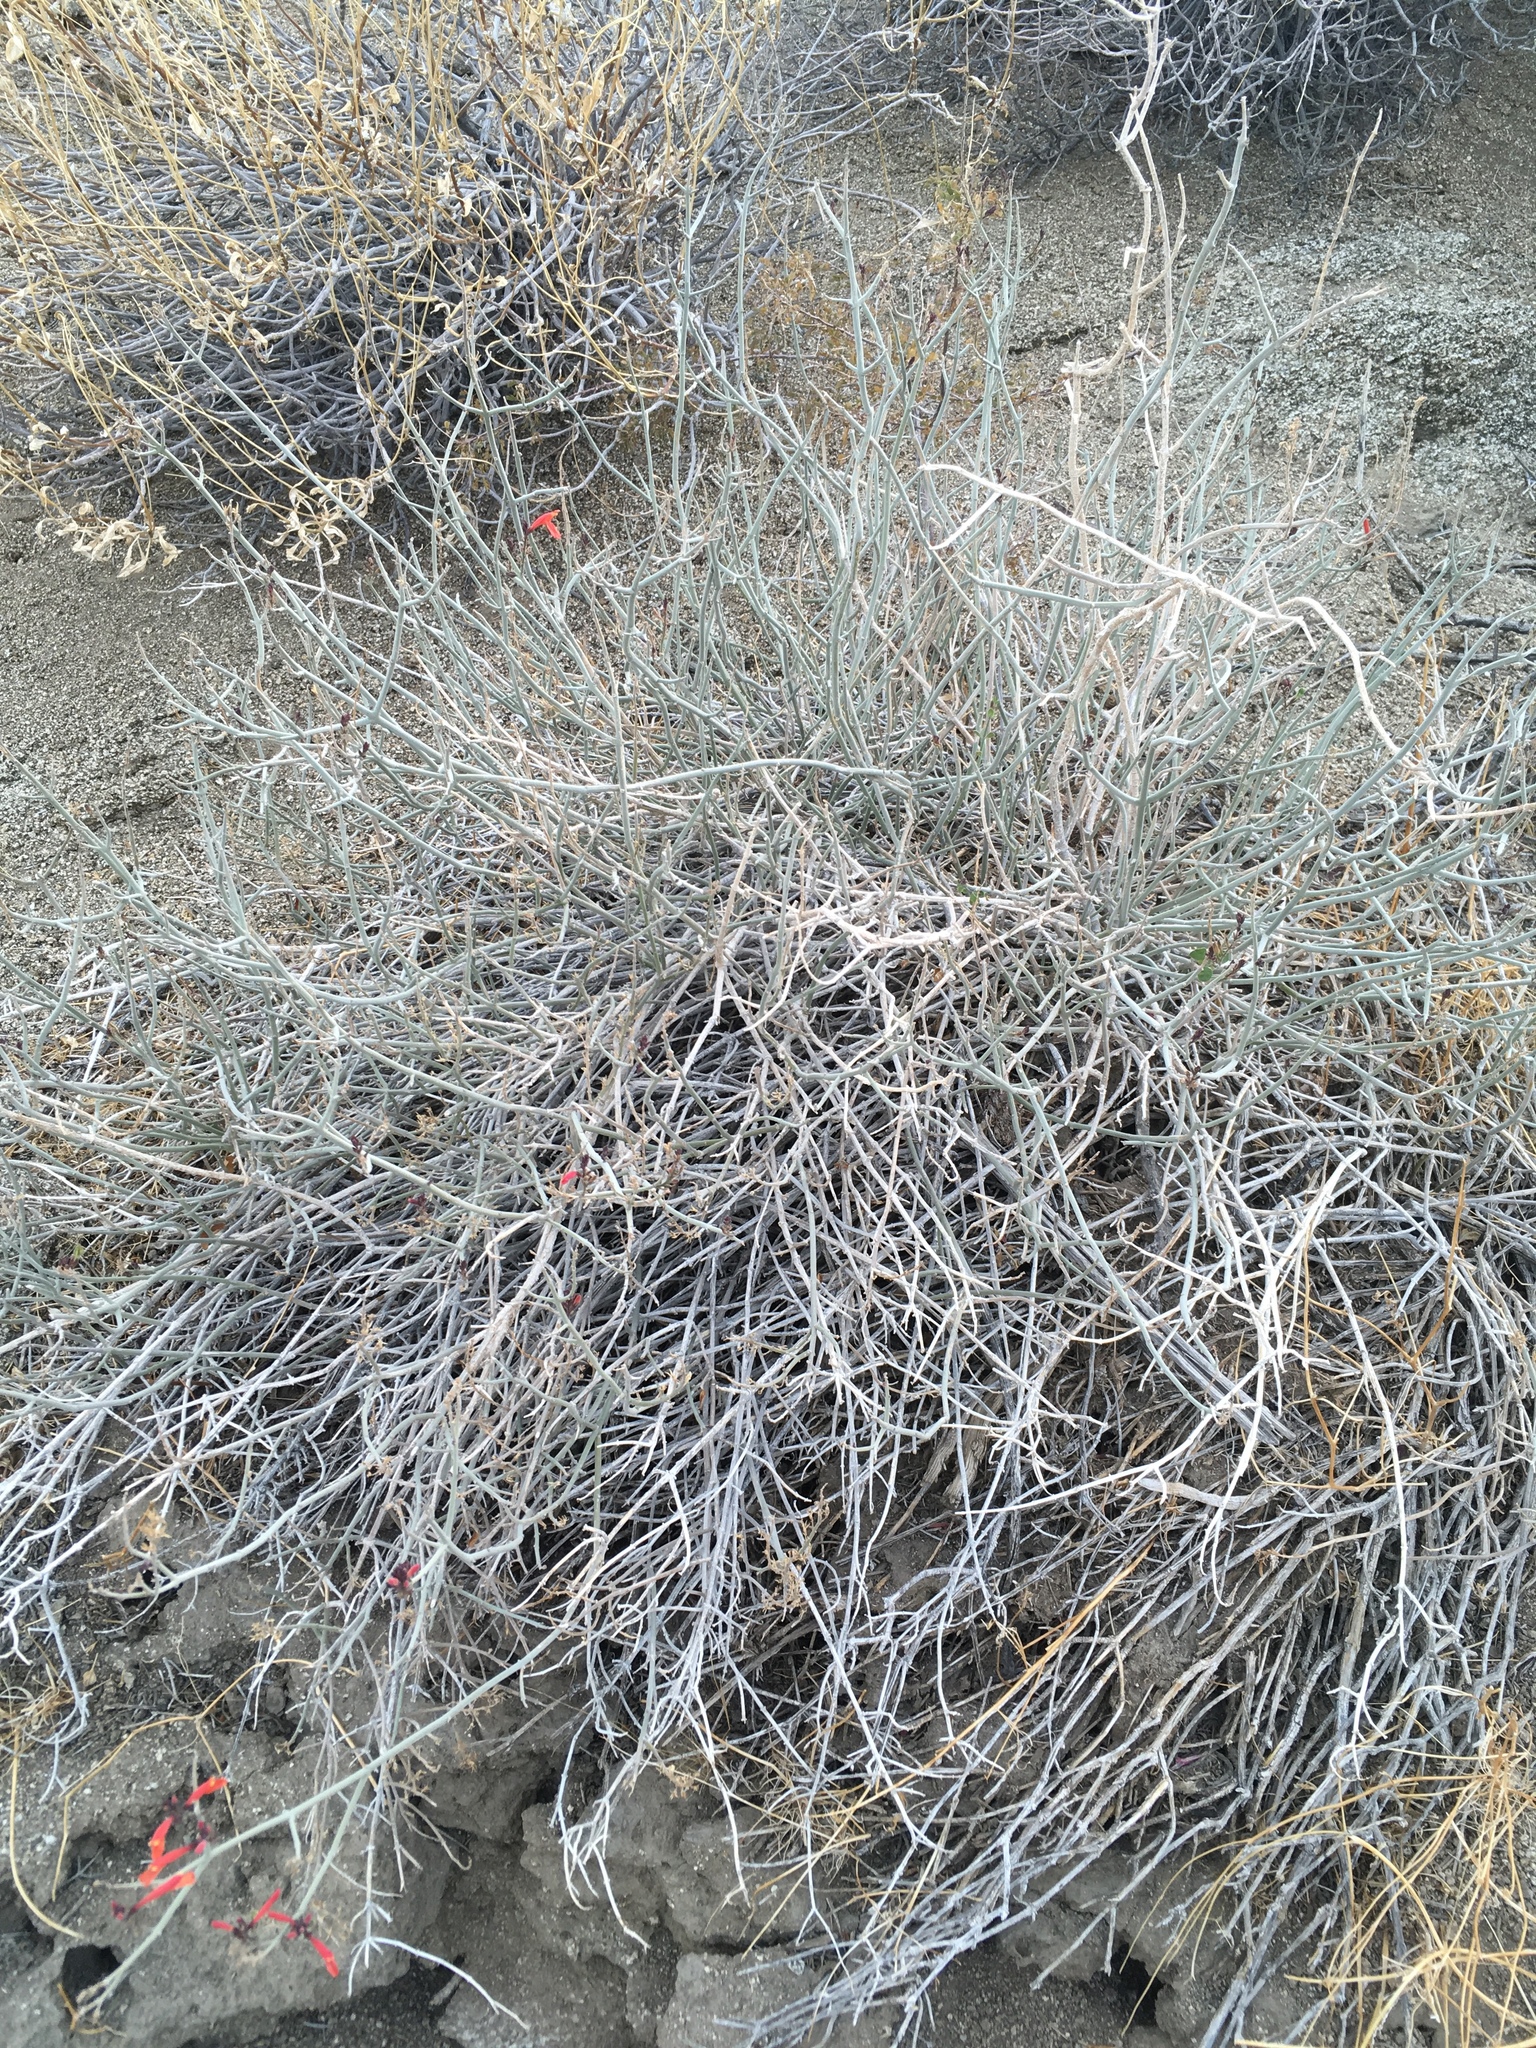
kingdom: Plantae
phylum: Tracheophyta
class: Magnoliopsida
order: Lamiales
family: Acanthaceae
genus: Justicia
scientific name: Justicia californica
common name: Chuparosa-honeysuckle
